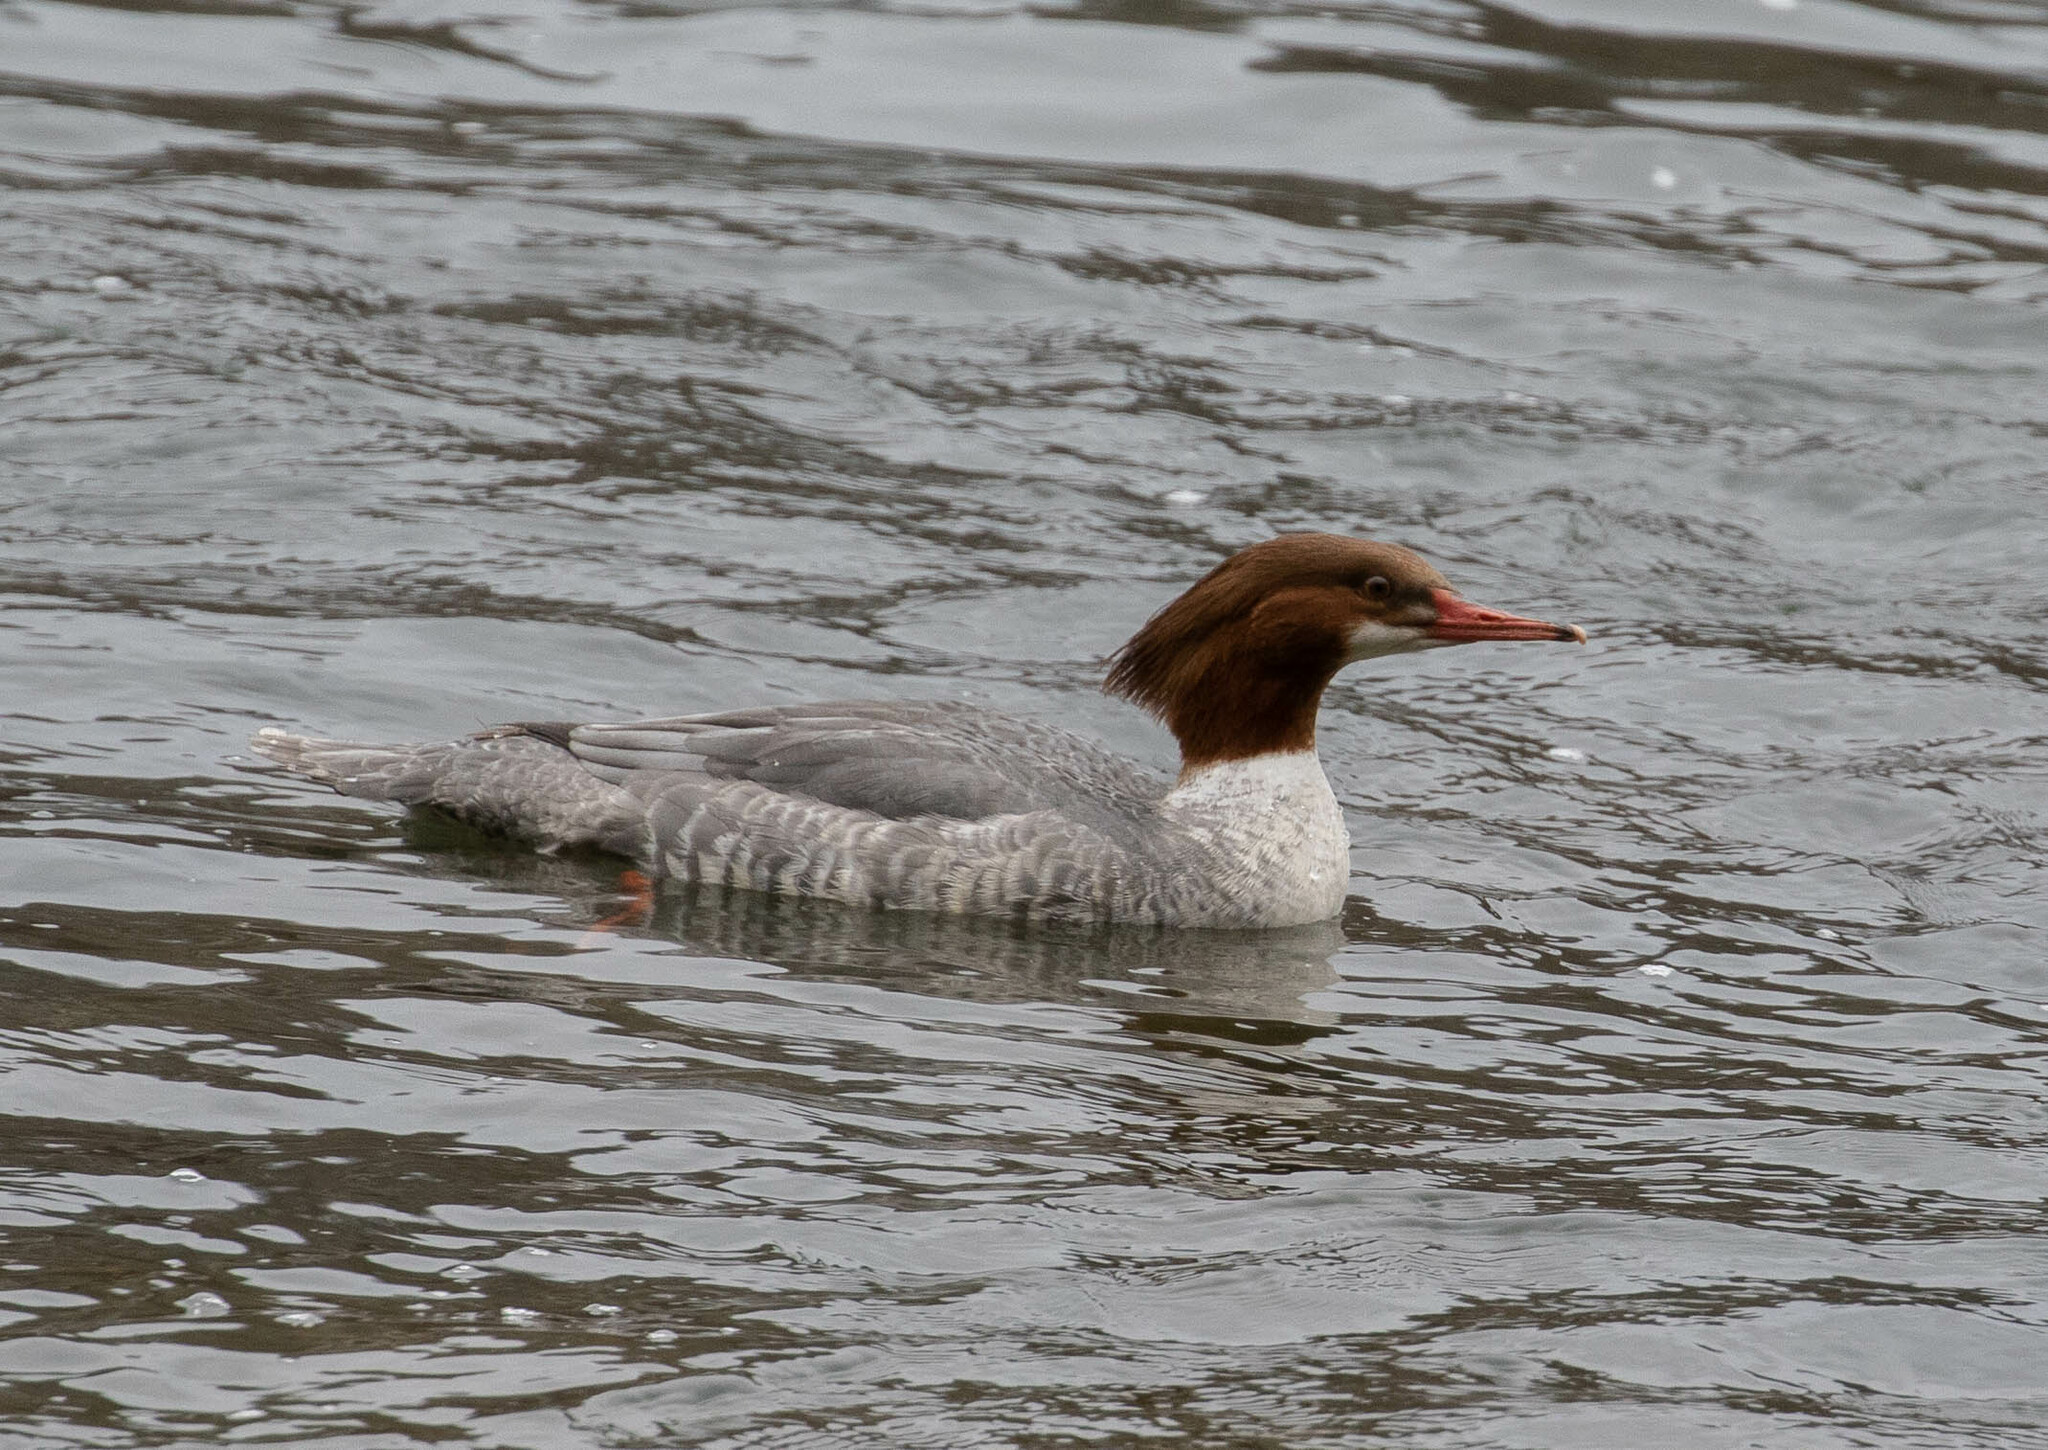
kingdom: Animalia
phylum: Chordata
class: Aves
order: Anseriformes
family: Anatidae
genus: Mergus
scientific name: Mergus merganser
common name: Common merganser
